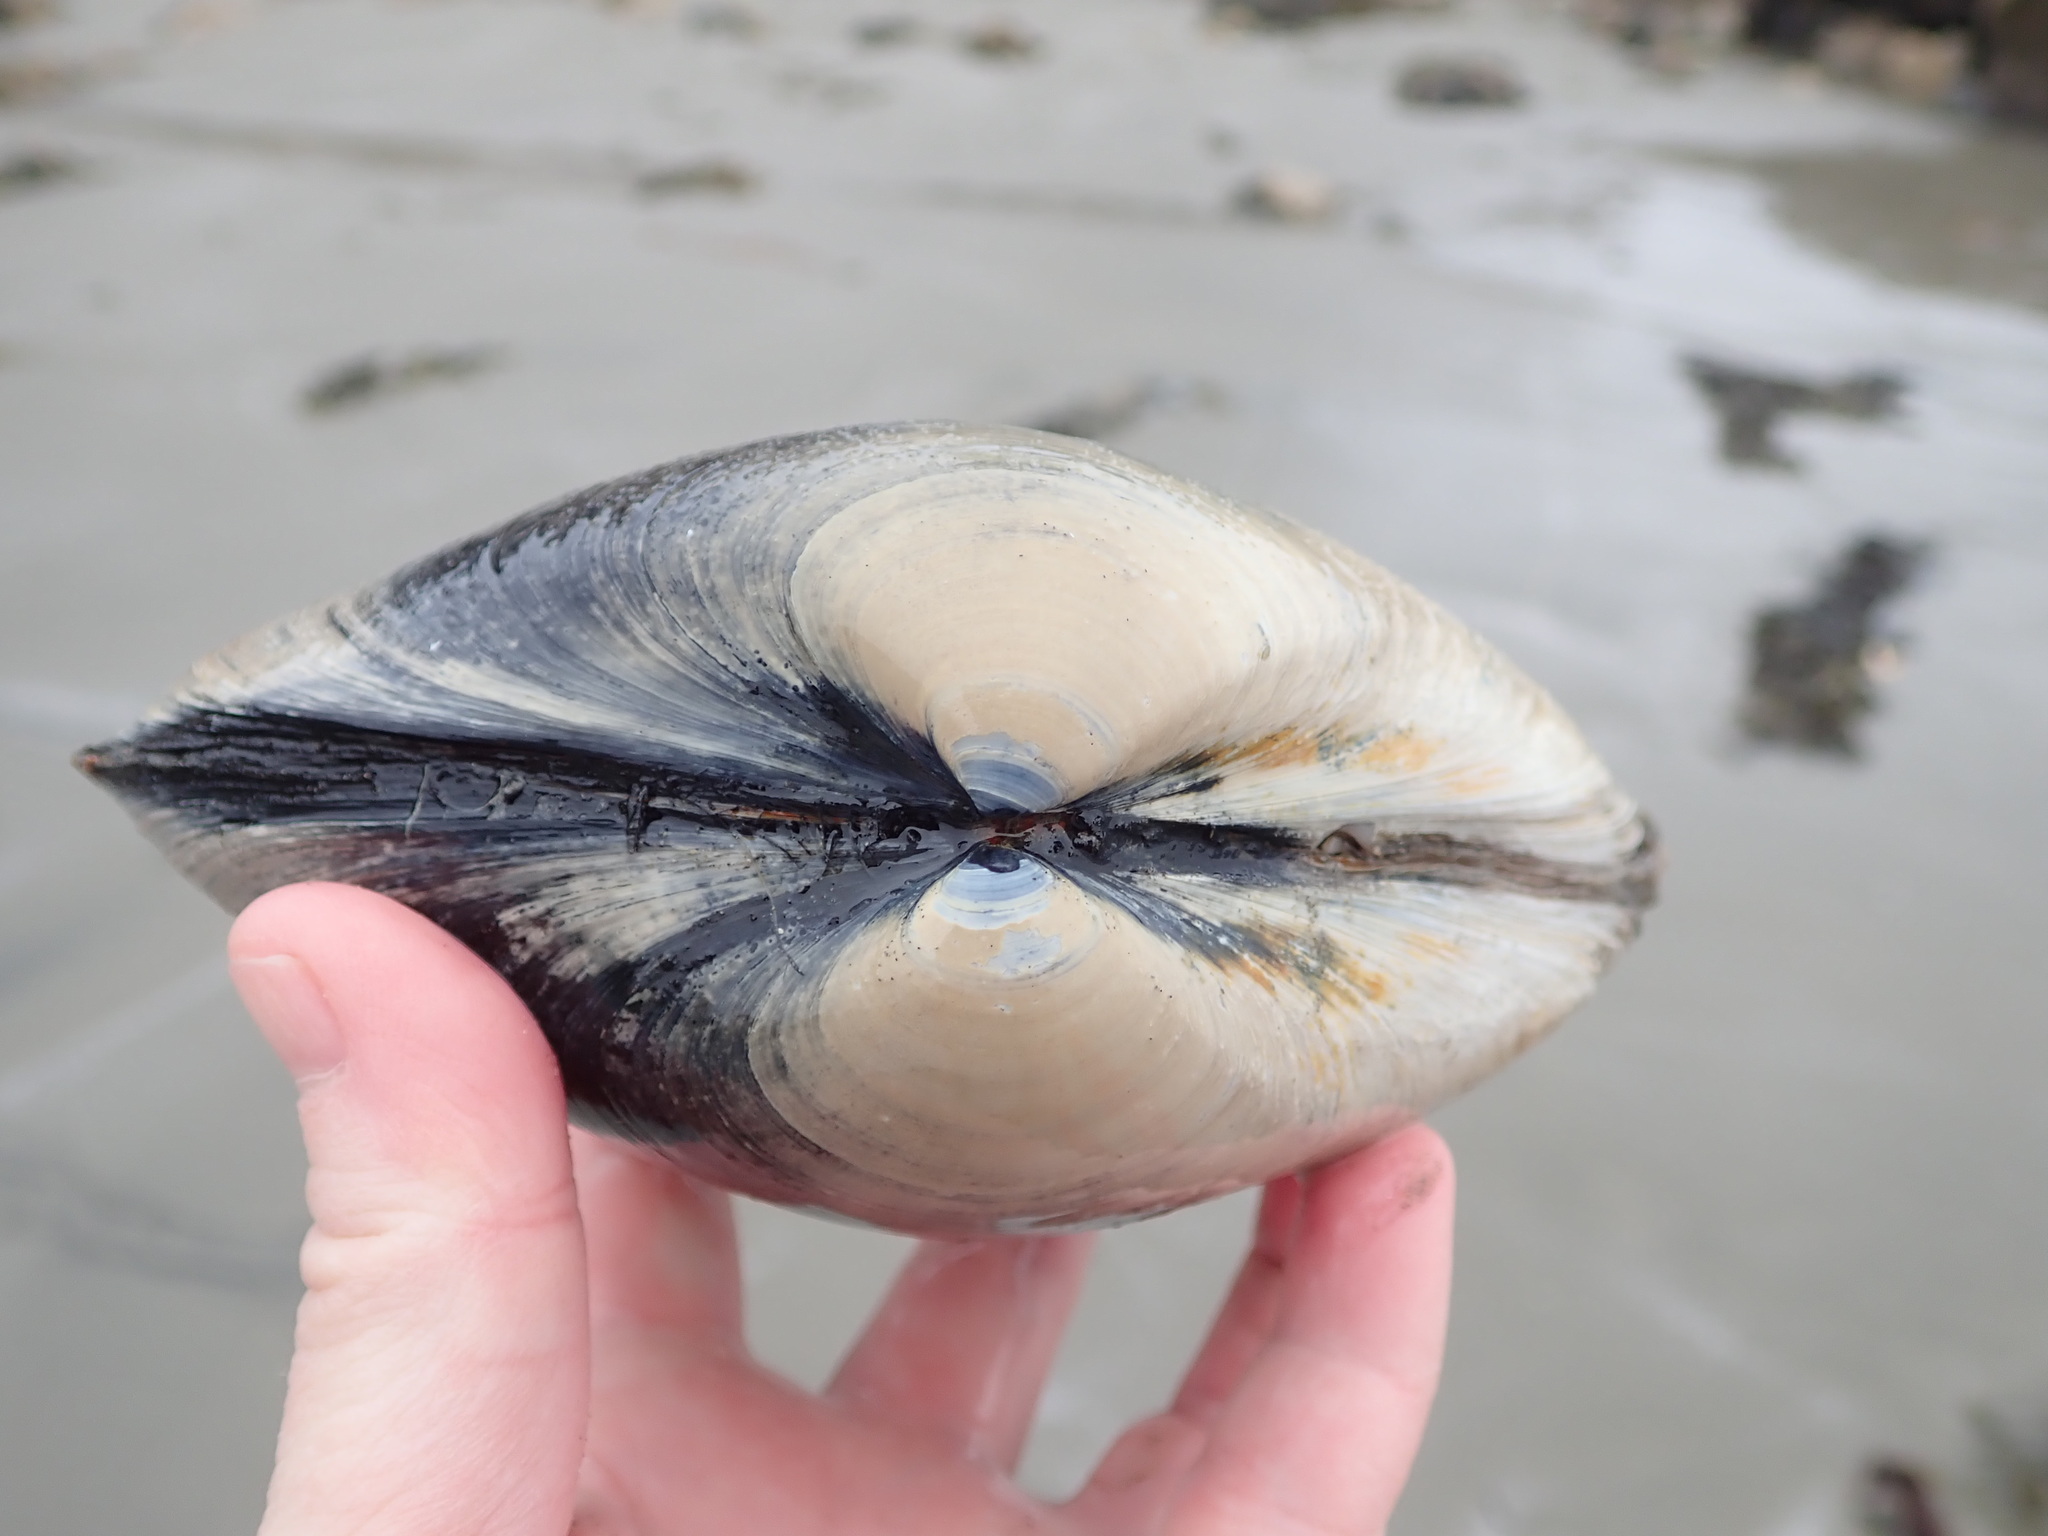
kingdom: Animalia
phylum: Mollusca
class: Bivalvia
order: Venerida
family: Mactridae
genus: Spisula
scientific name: Spisula solidissima
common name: Atlantic surf clam
